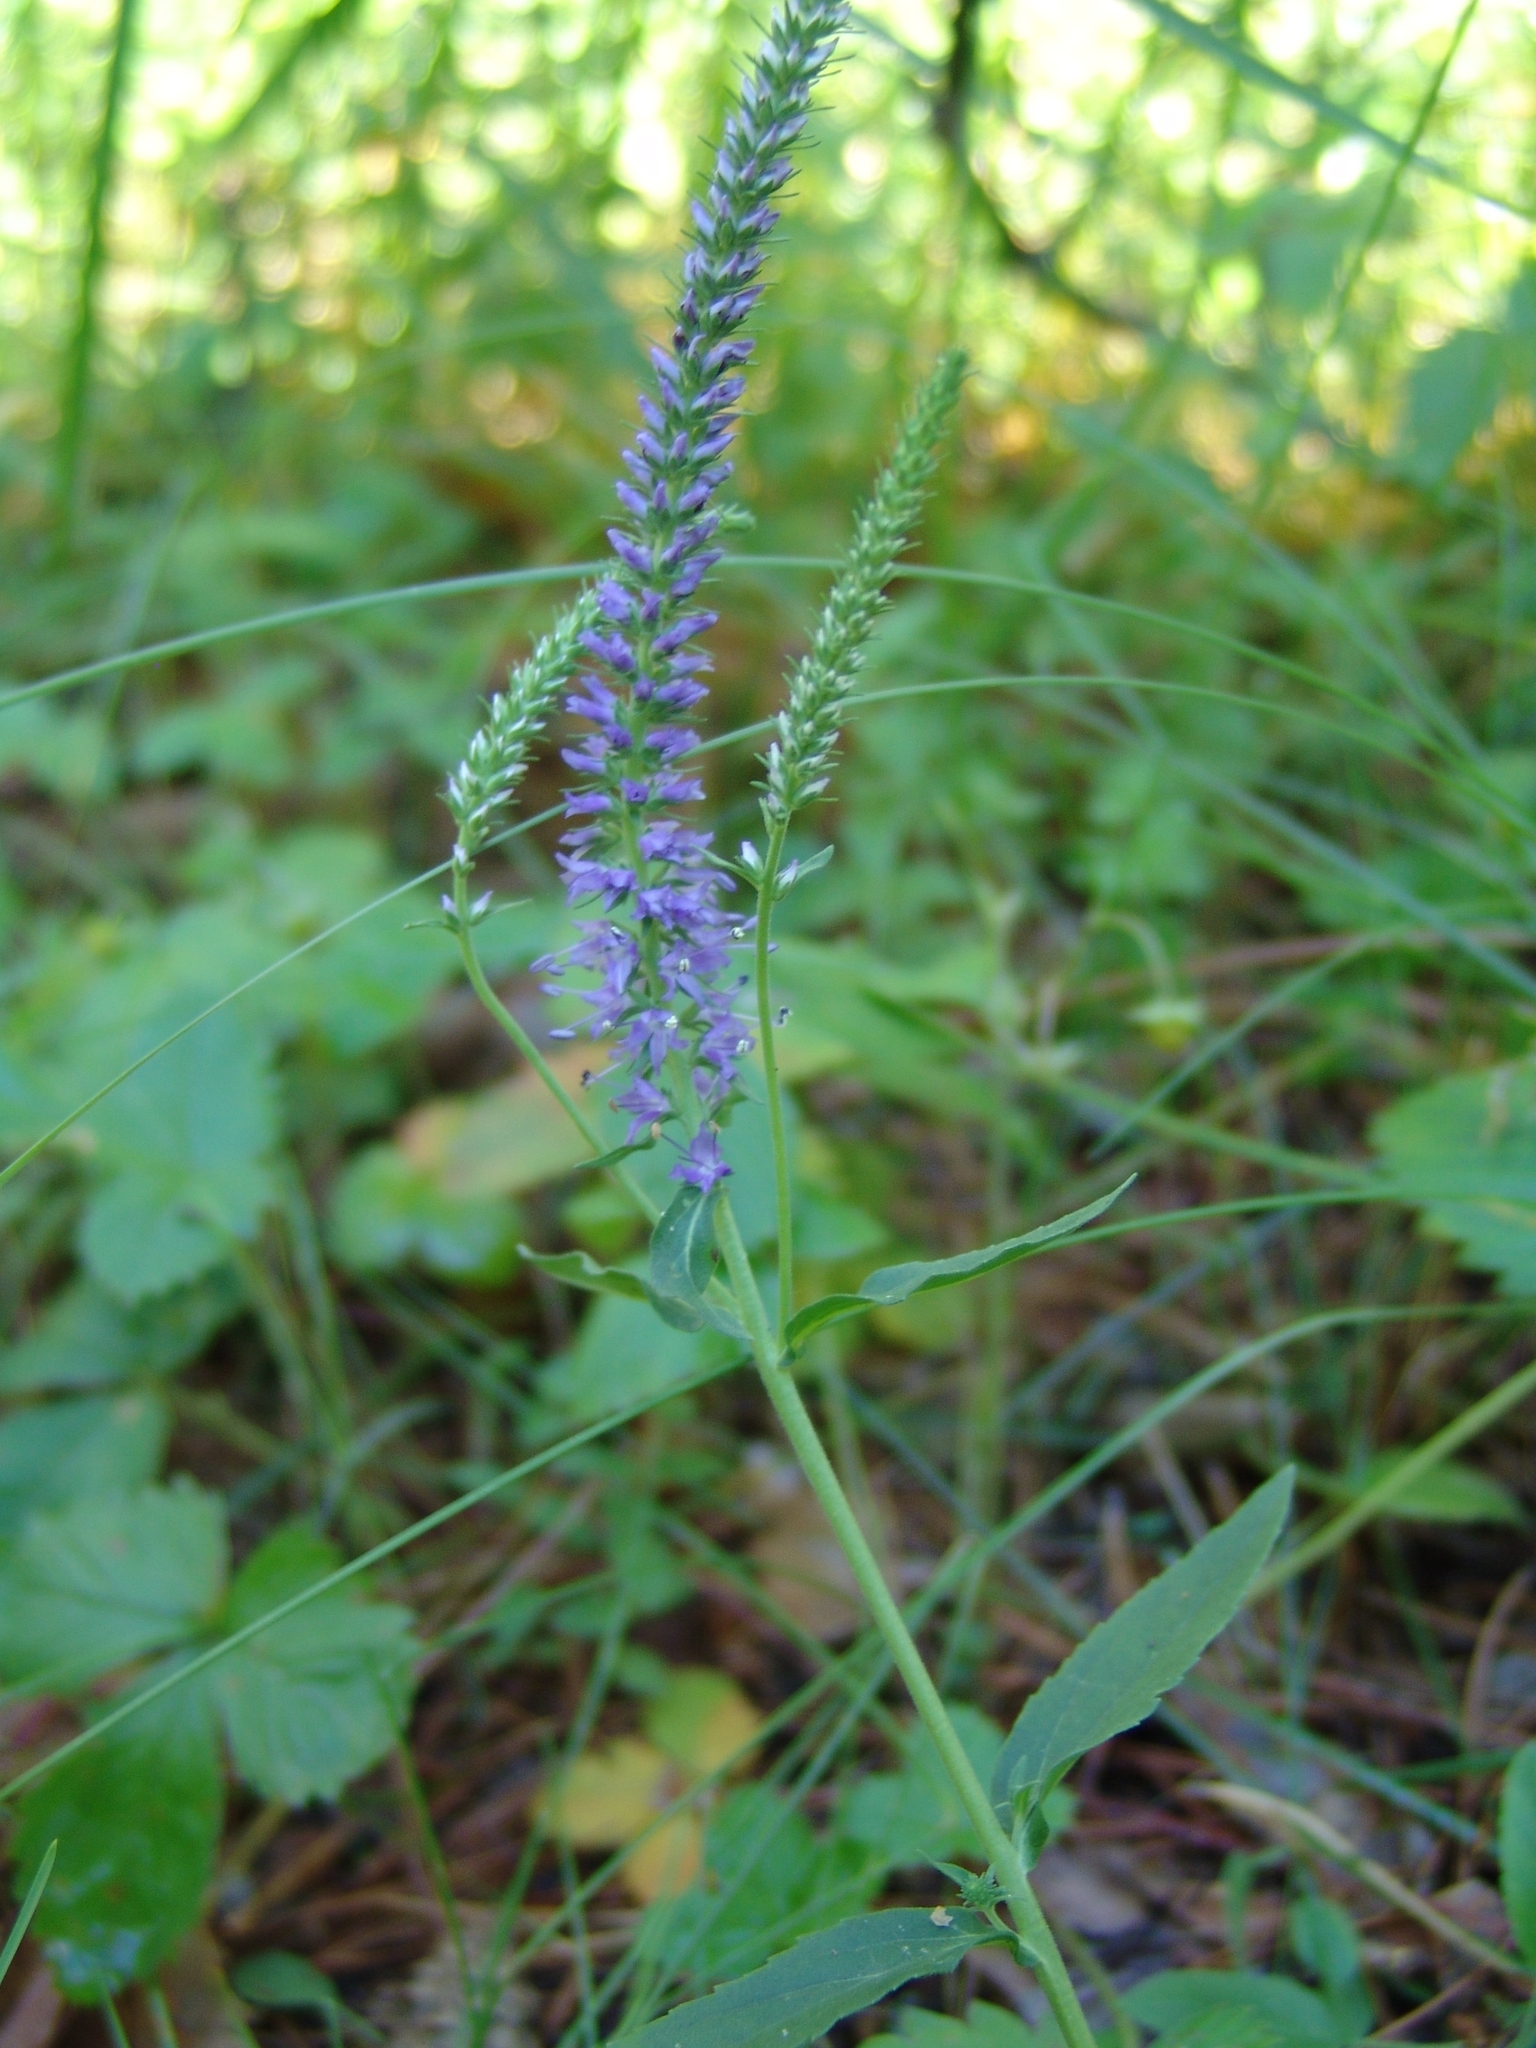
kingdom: Plantae
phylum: Tracheophyta
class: Magnoliopsida
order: Lamiales
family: Plantaginaceae
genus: Veronica
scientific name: Veronica spicata
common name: Spiked speedwell
